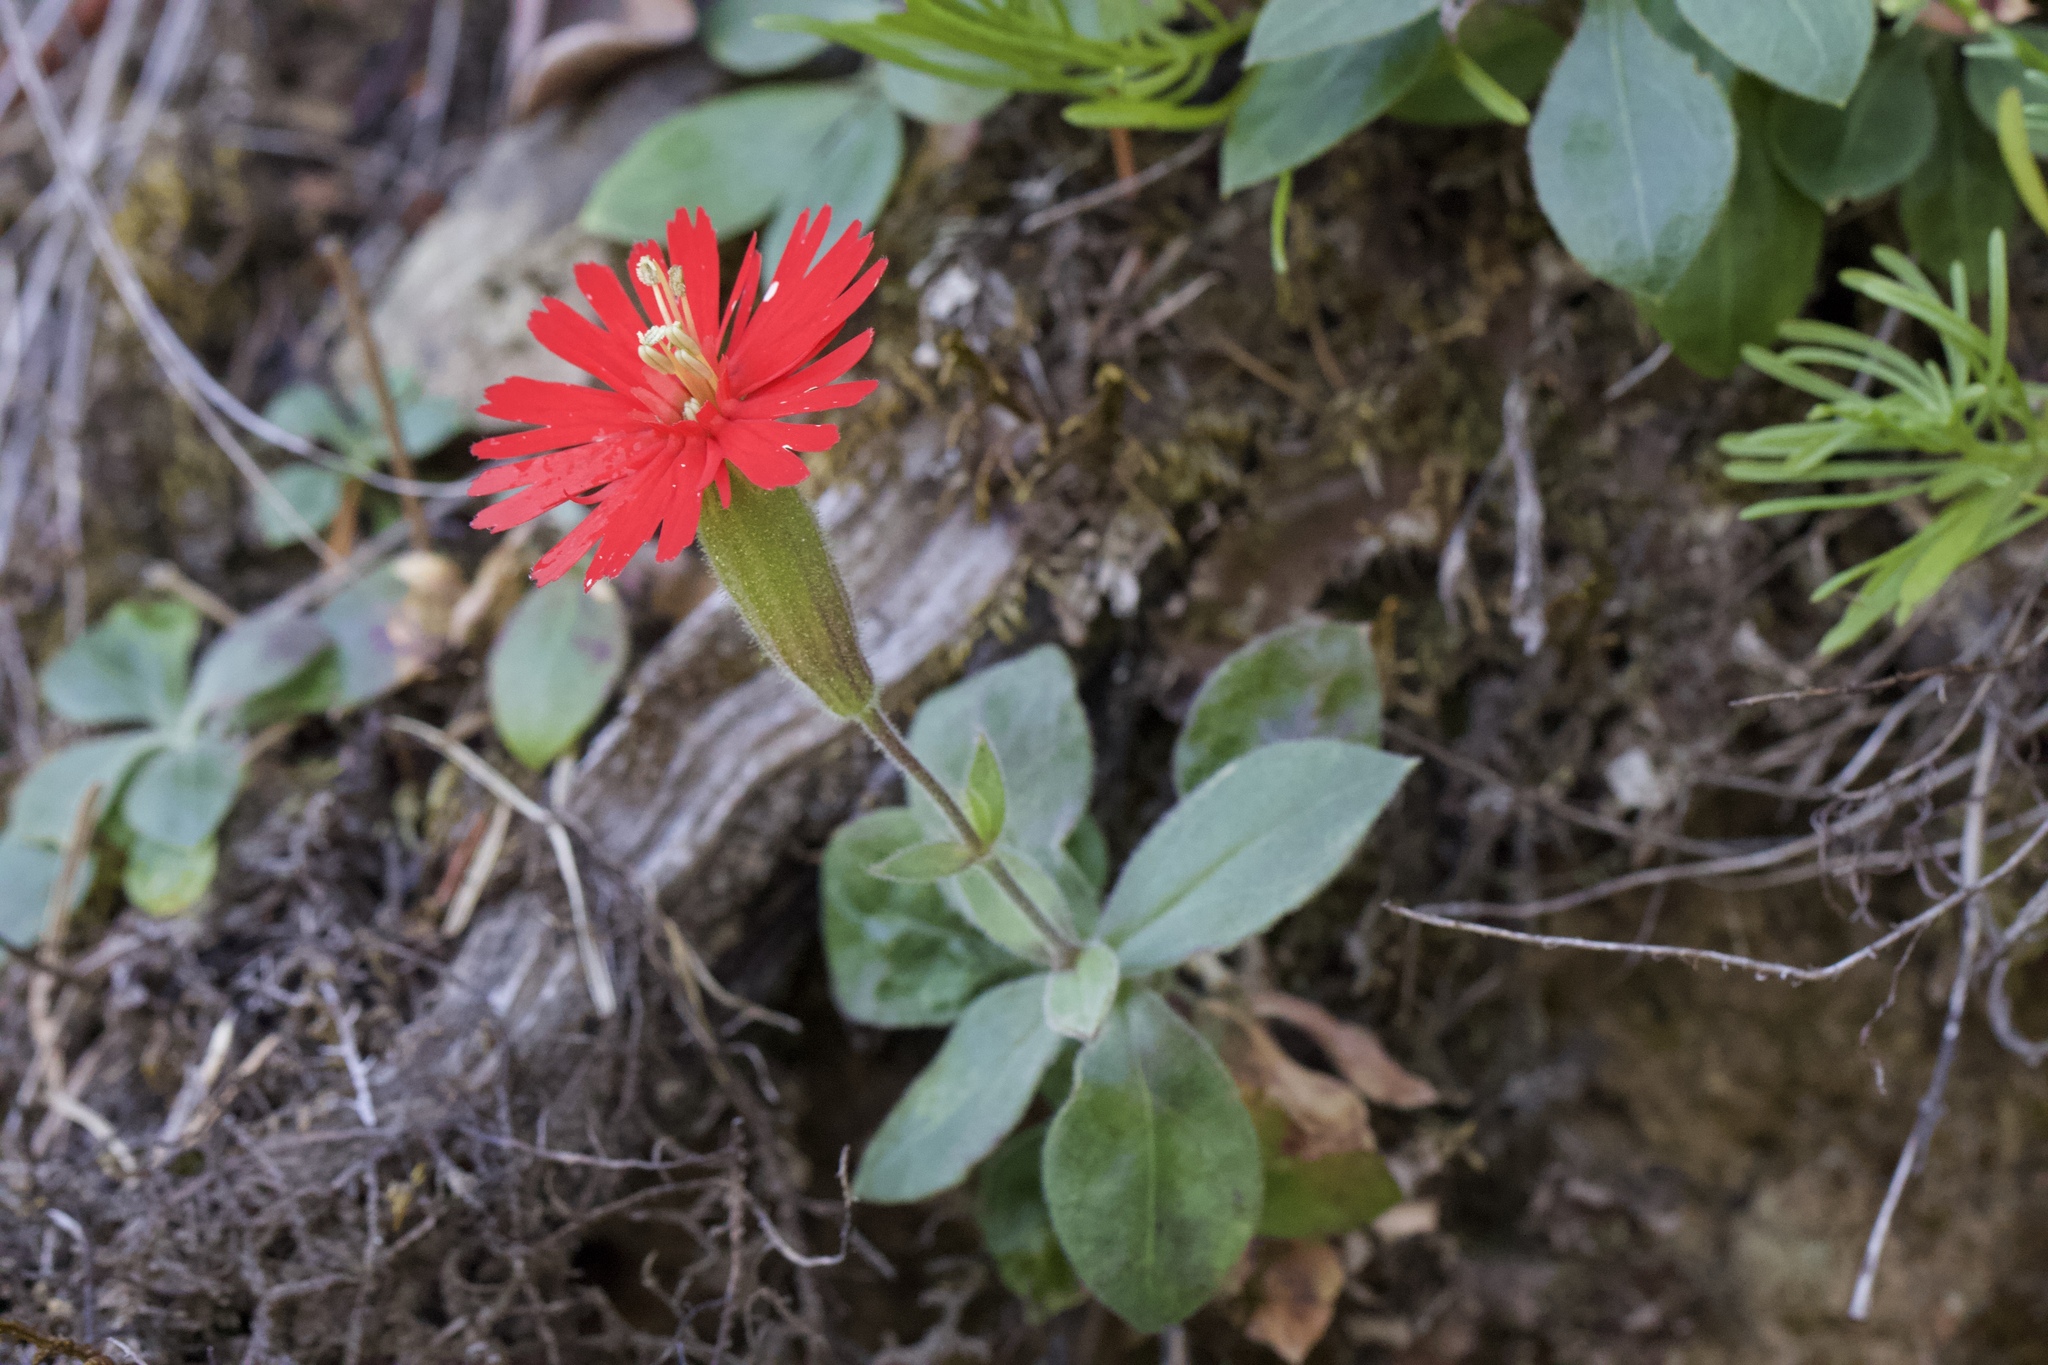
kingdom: Plantae
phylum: Tracheophyta
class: Magnoliopsida
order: Caryophyllales
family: Caryophyllaceae
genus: Silene
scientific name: Silene laciniata
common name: Indian-pink
